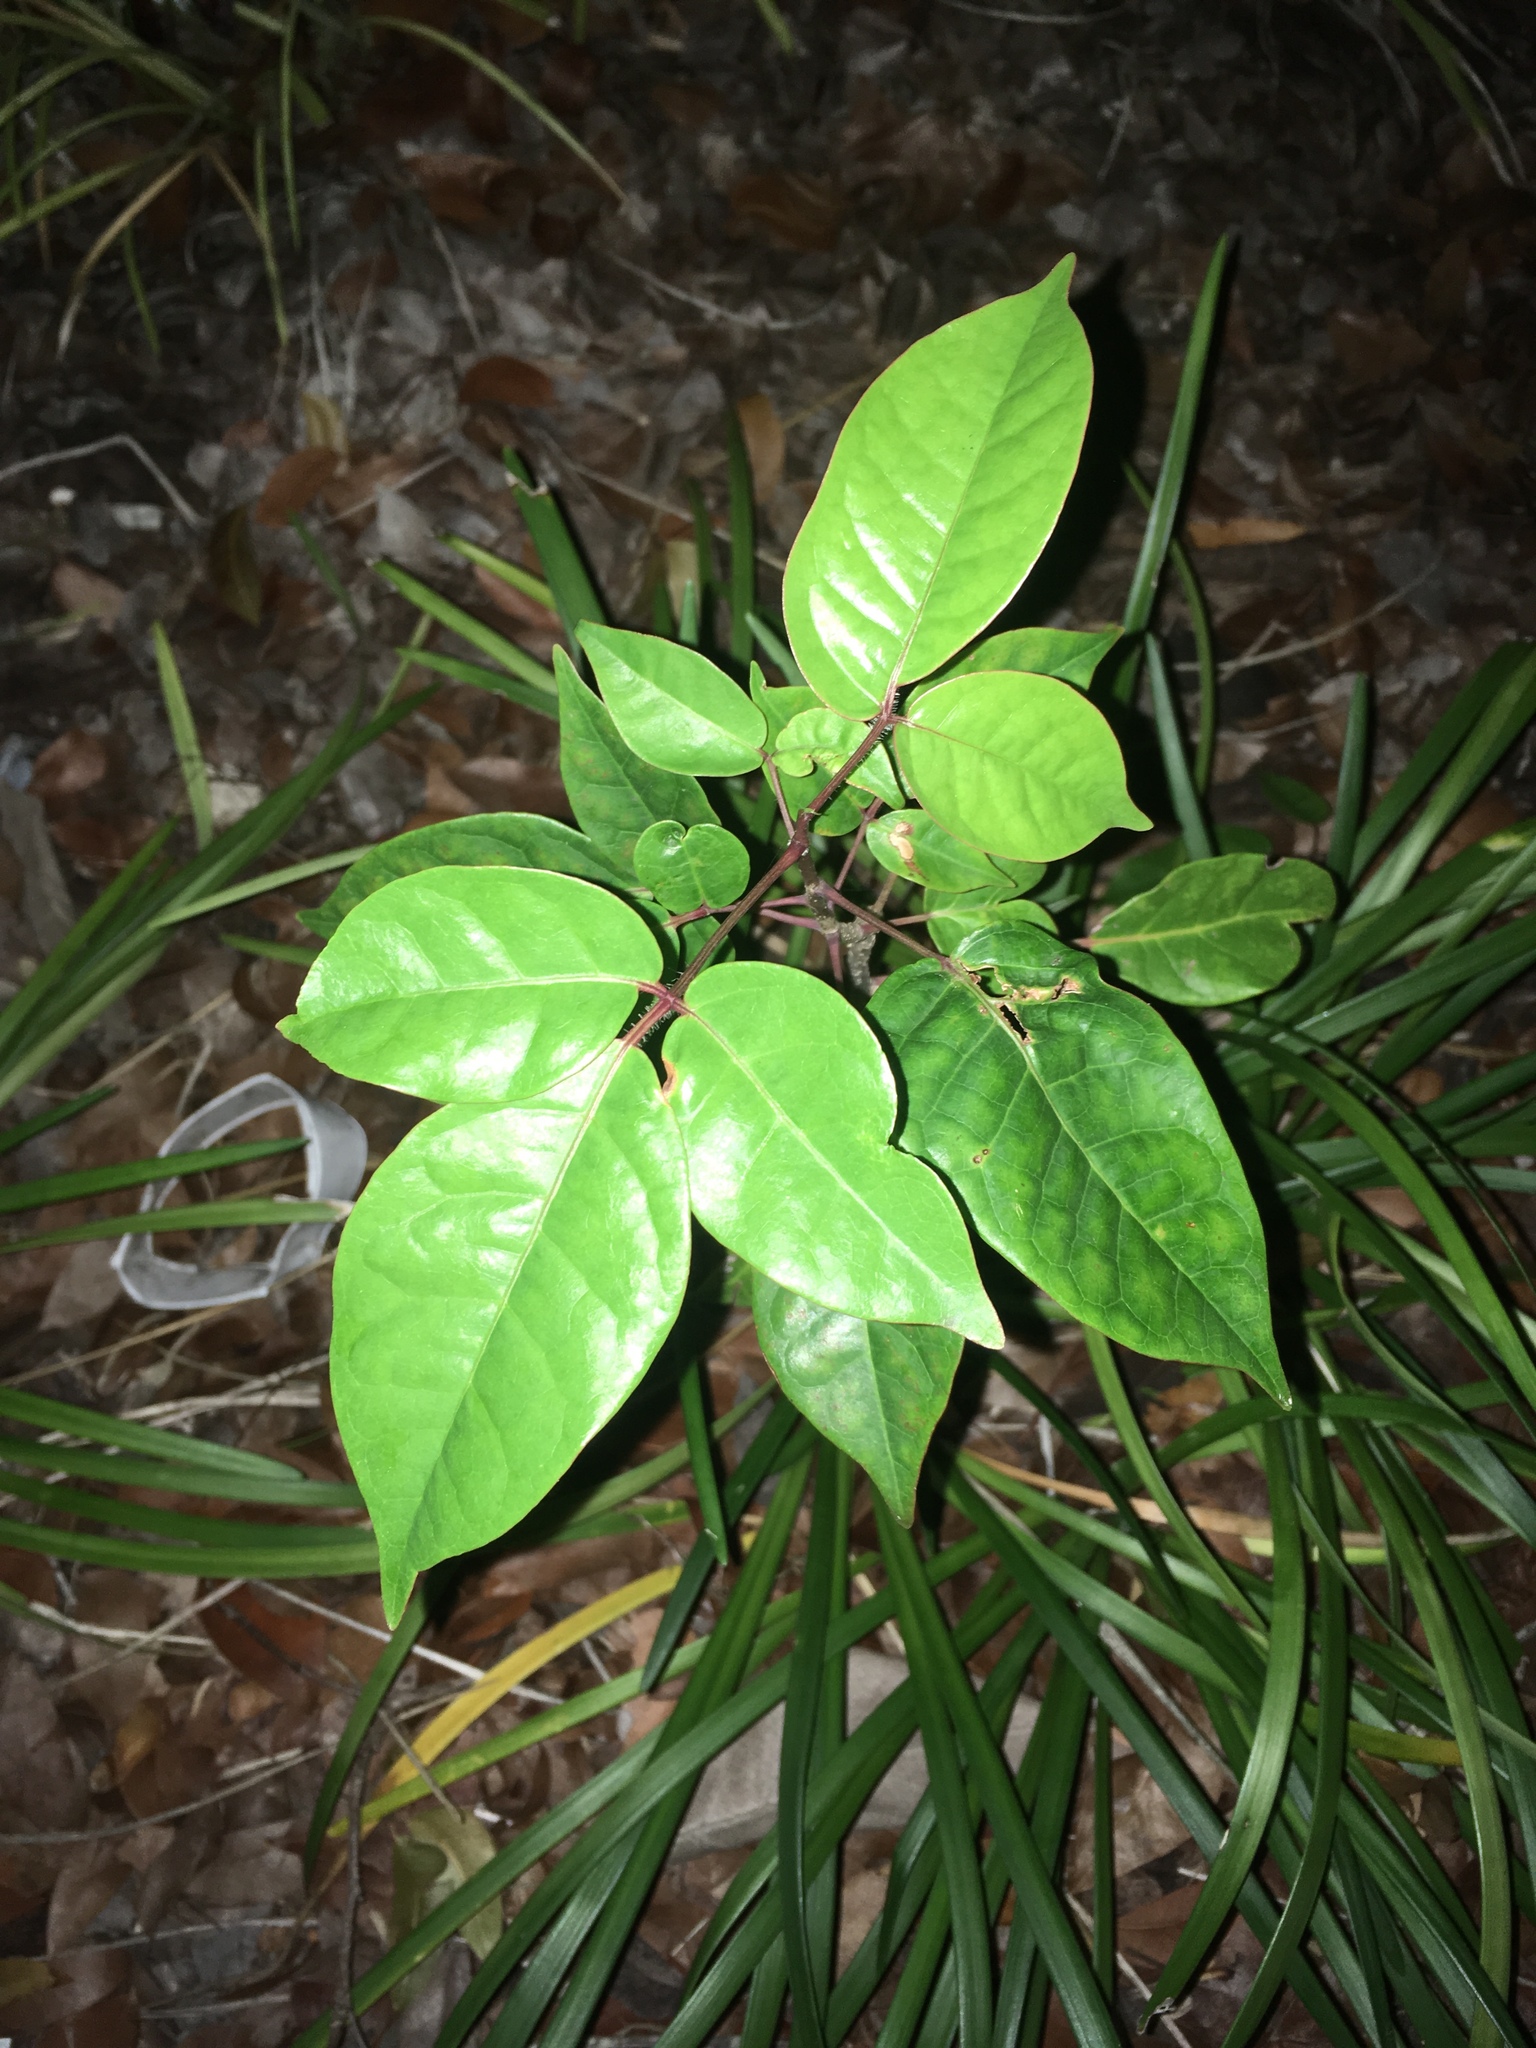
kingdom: Plantae
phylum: Tracheophyta
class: Magnoliopsida
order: Sapindales
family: Burseraceae
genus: Bursera
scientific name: Bursera simaruba
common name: Turpentine tree
